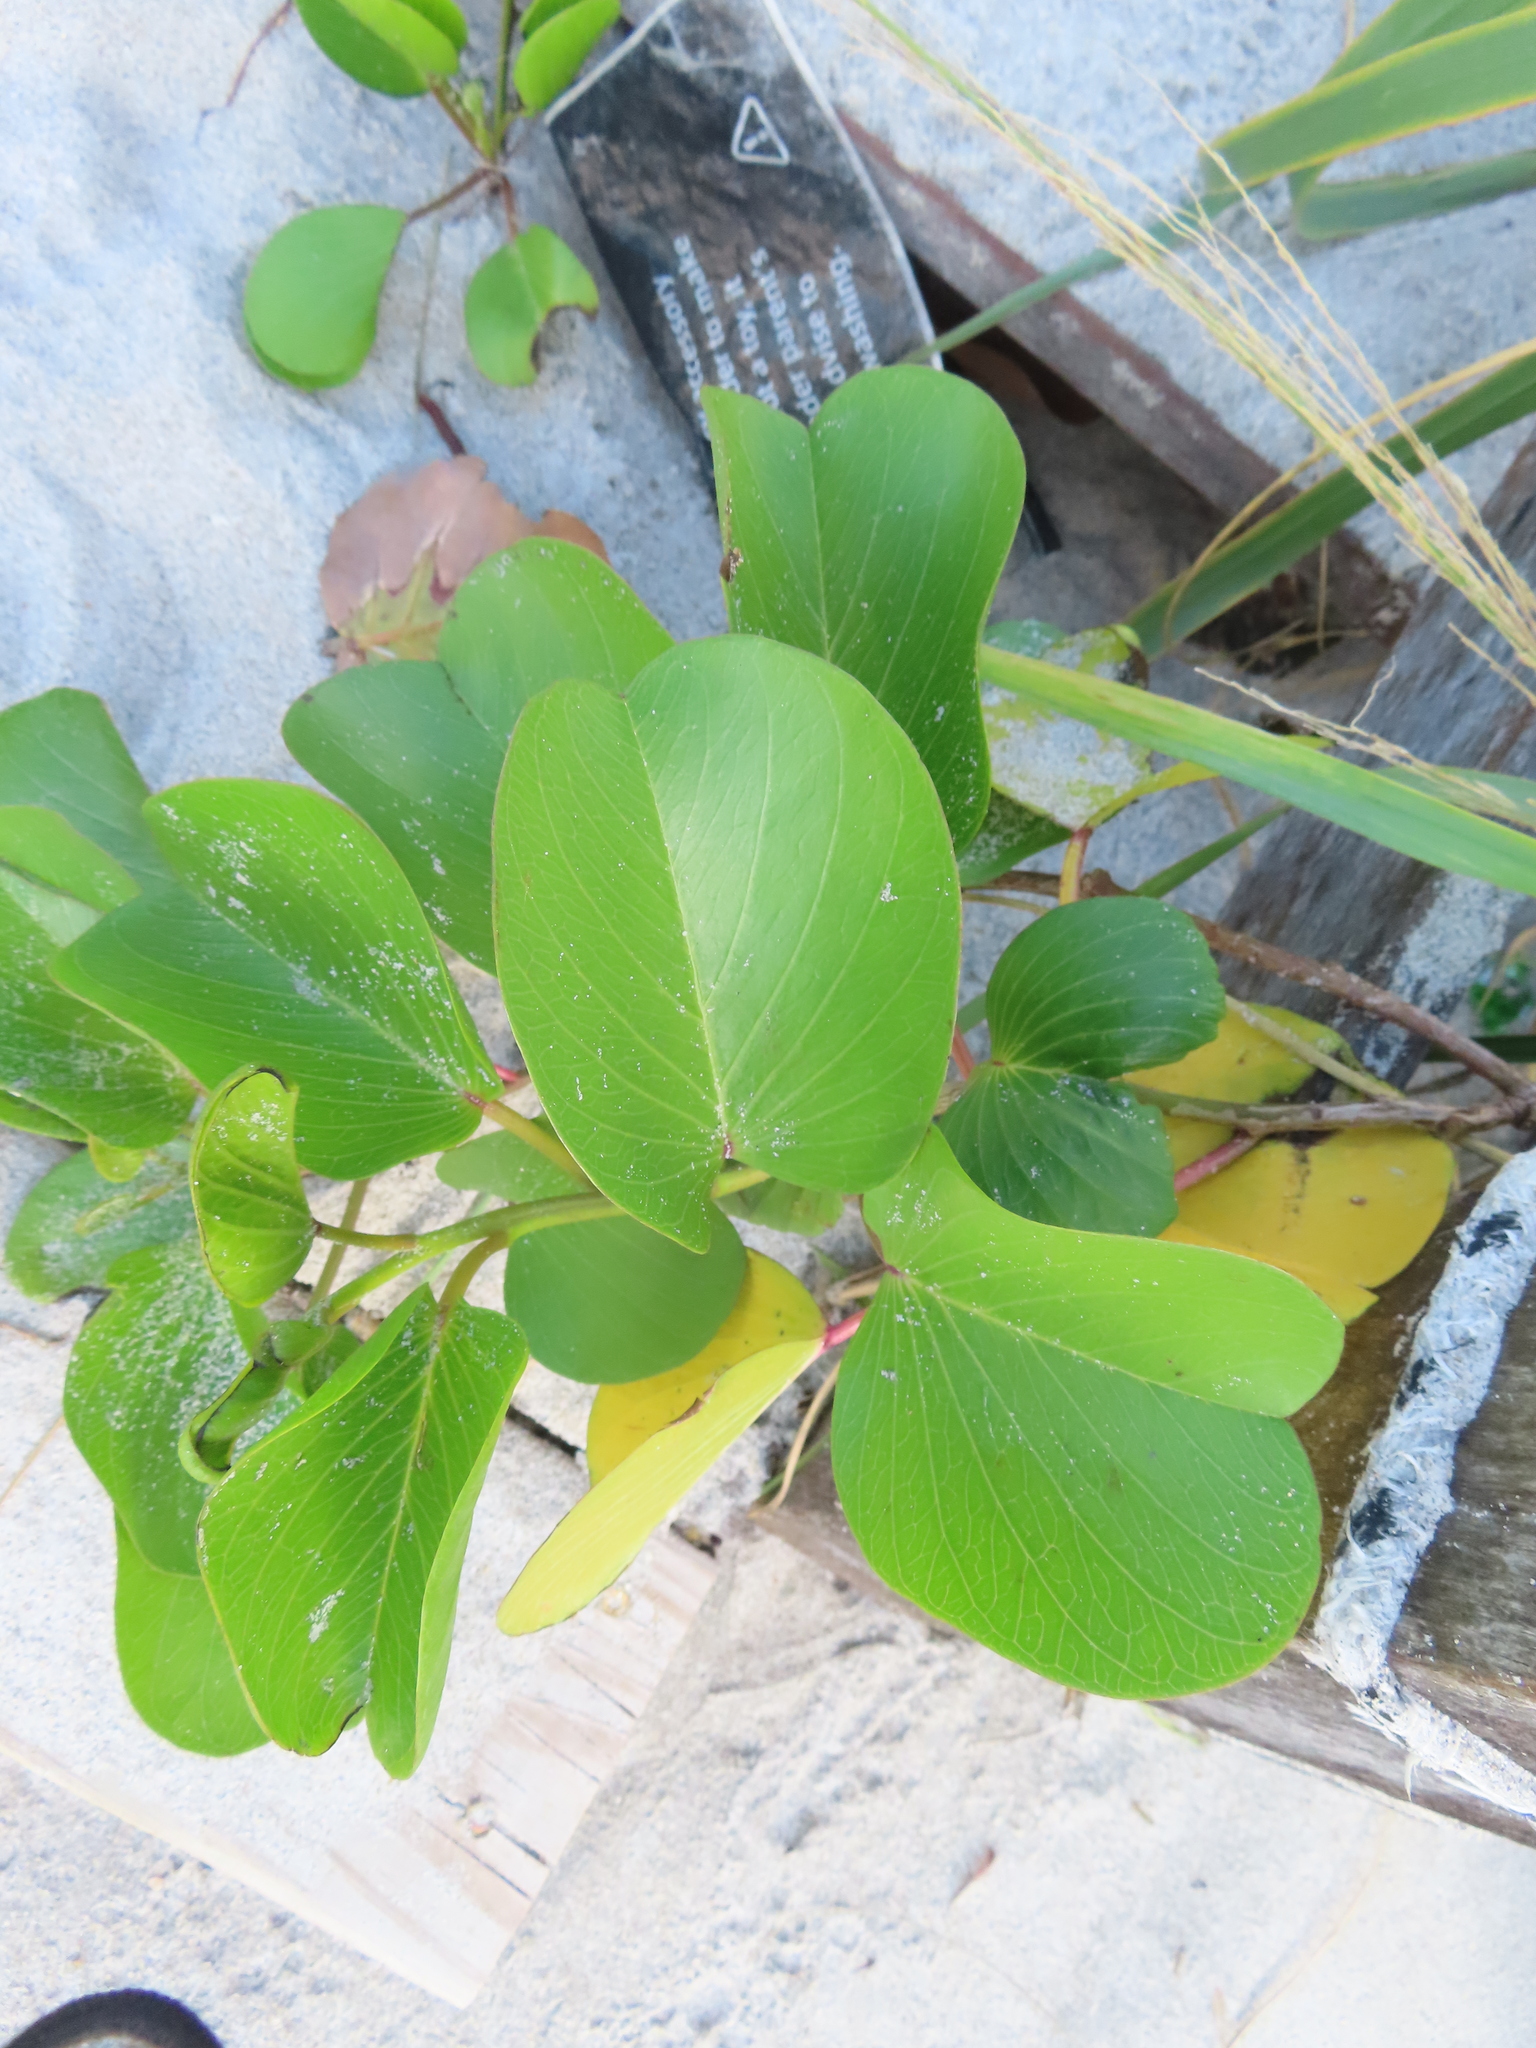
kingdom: Plantae
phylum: Tracheophyta
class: Magnoliopsida
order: Solanales
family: Convolvulaceae
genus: Ipomoea
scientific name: Ipomoea pes-caprae
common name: Beach morning glory
